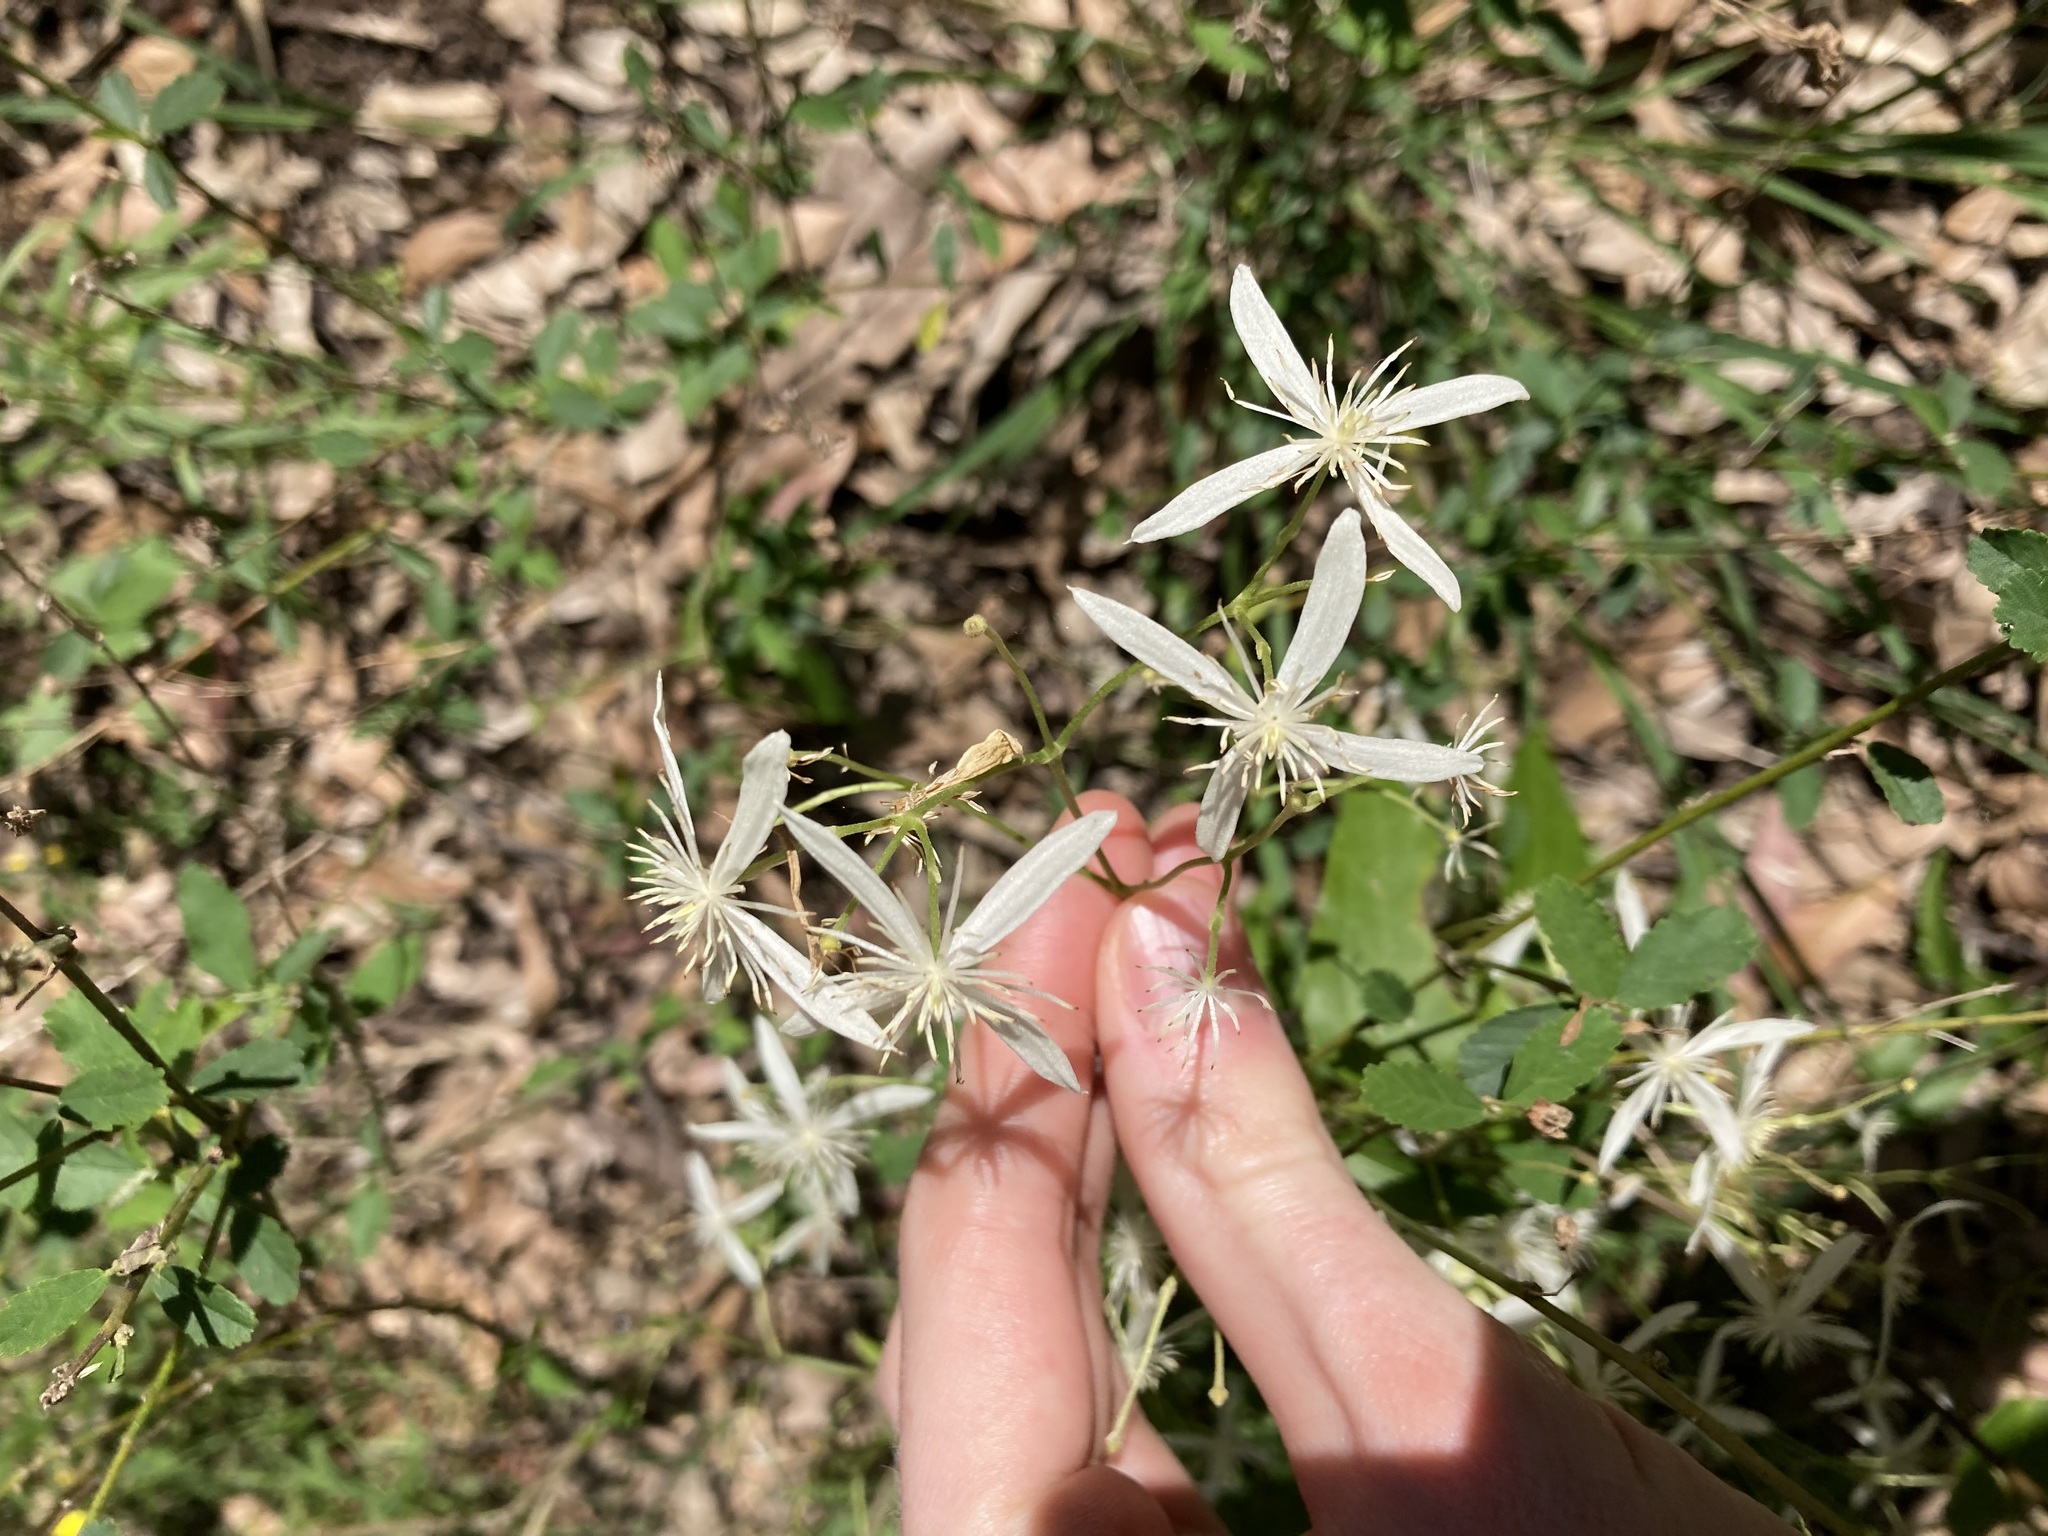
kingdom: Plantae
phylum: Tracheophyta
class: Magnoliopsida
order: Ranunculales
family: Ranunculaceae
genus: Clematis
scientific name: Clematis glycinoides
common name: Forest clematis
